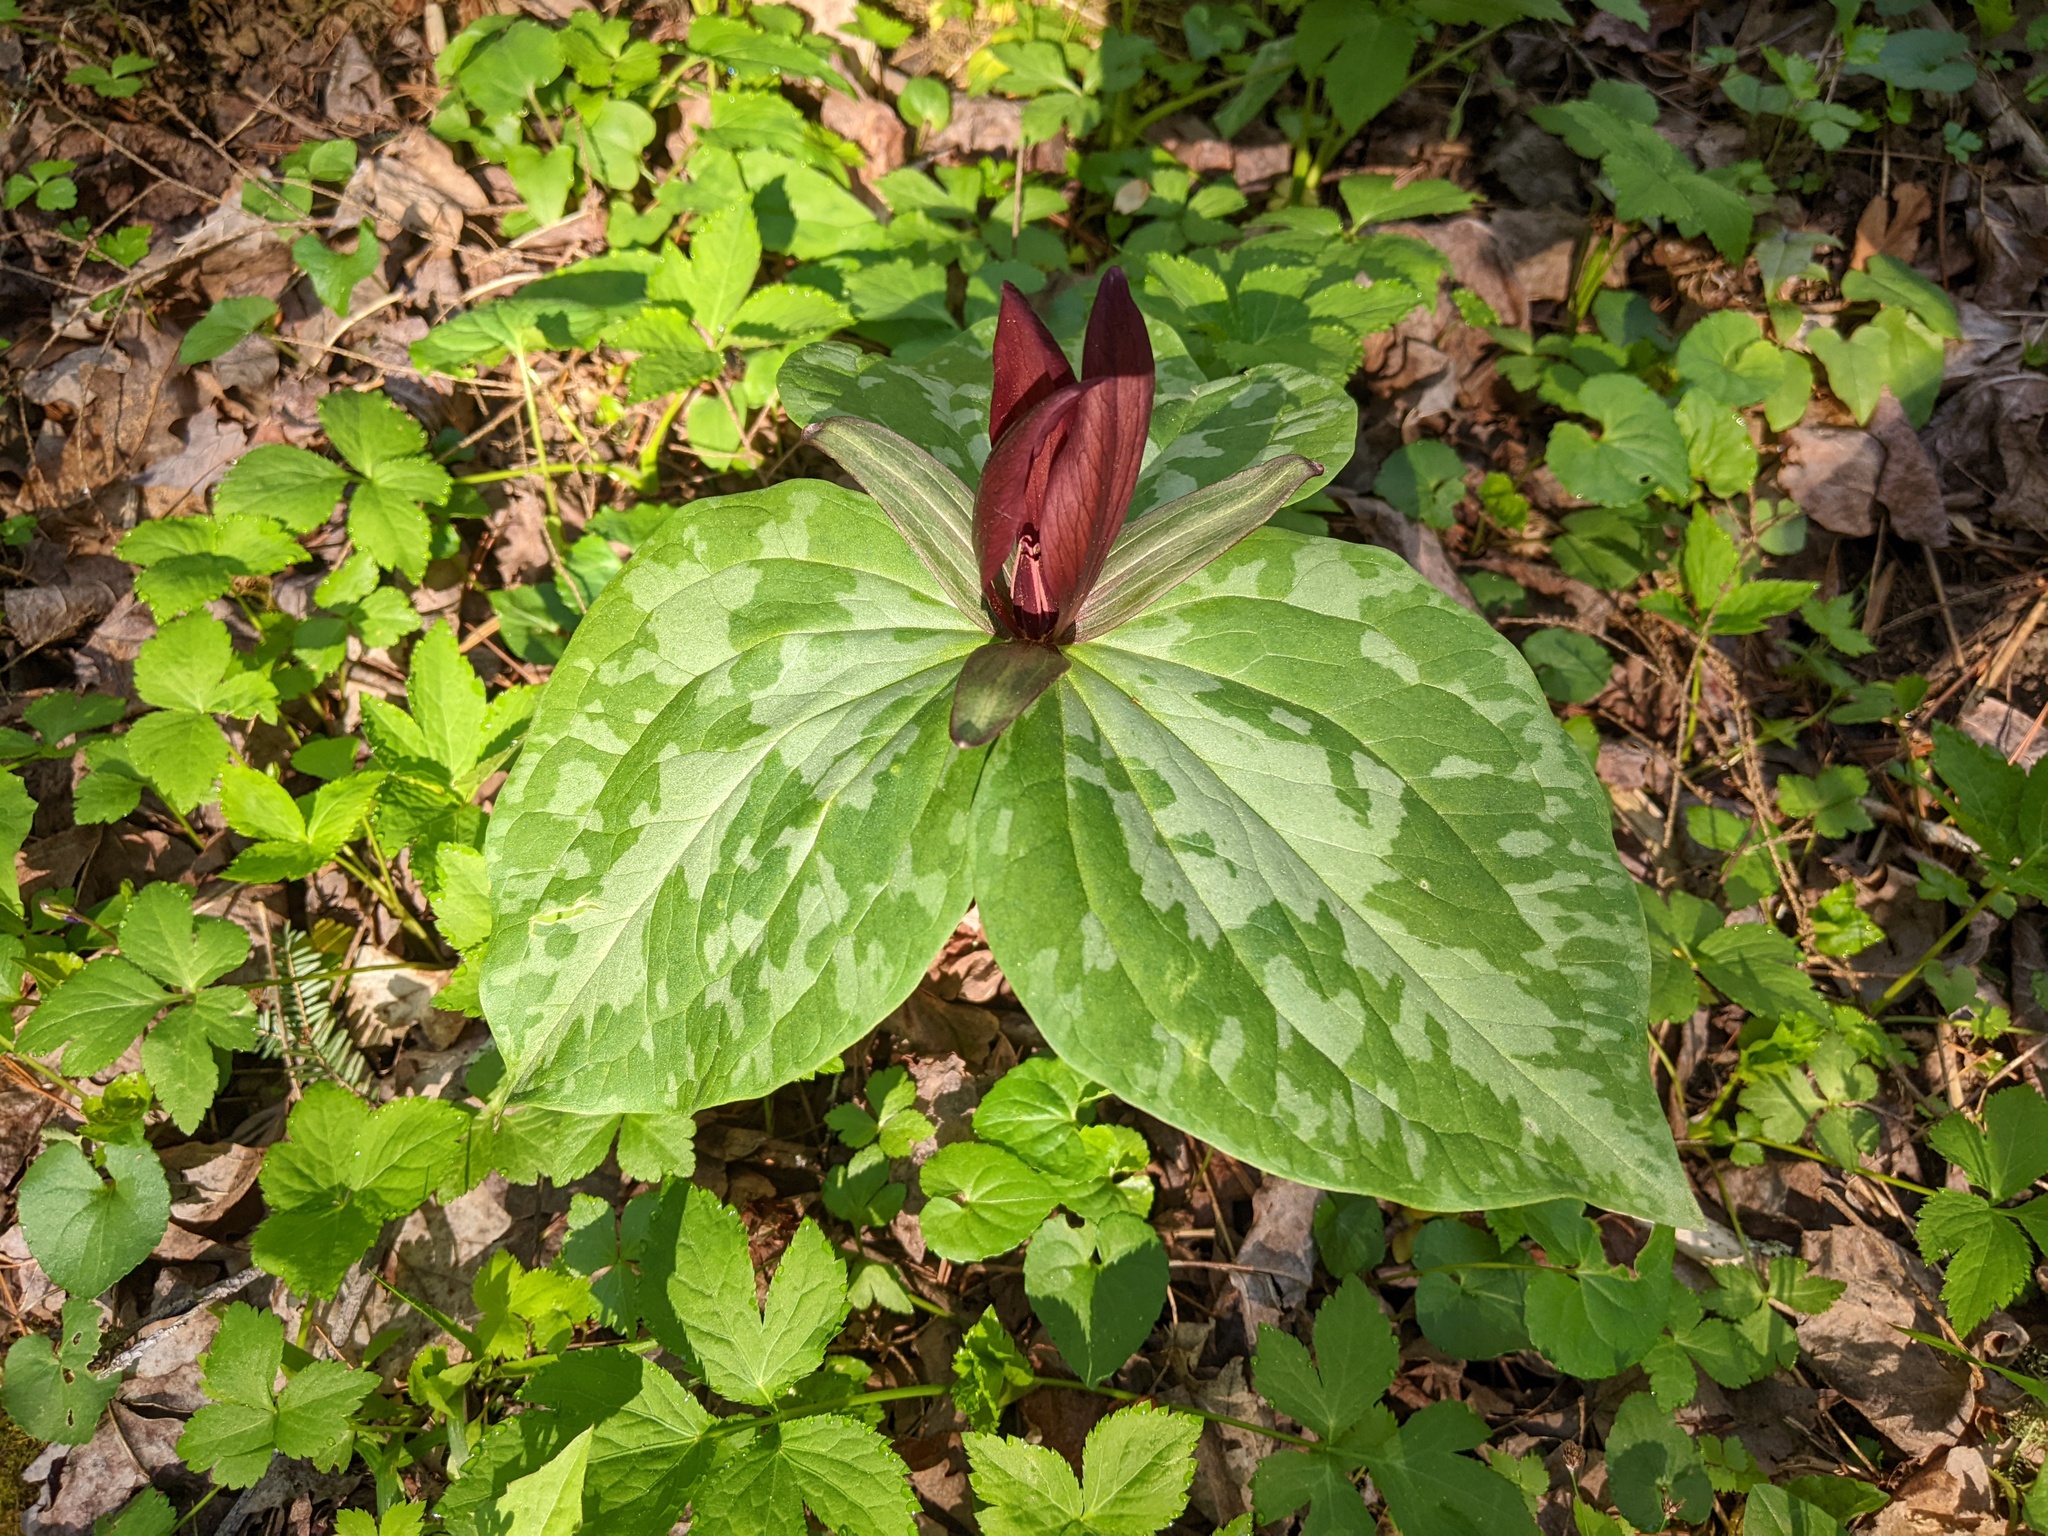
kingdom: Plantae
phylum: Tracheophyta
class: Liliopsida
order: Liliales
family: Melanthiaceae
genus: Trillium
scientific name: Trillium cuneatum
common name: Cuneate trillium
